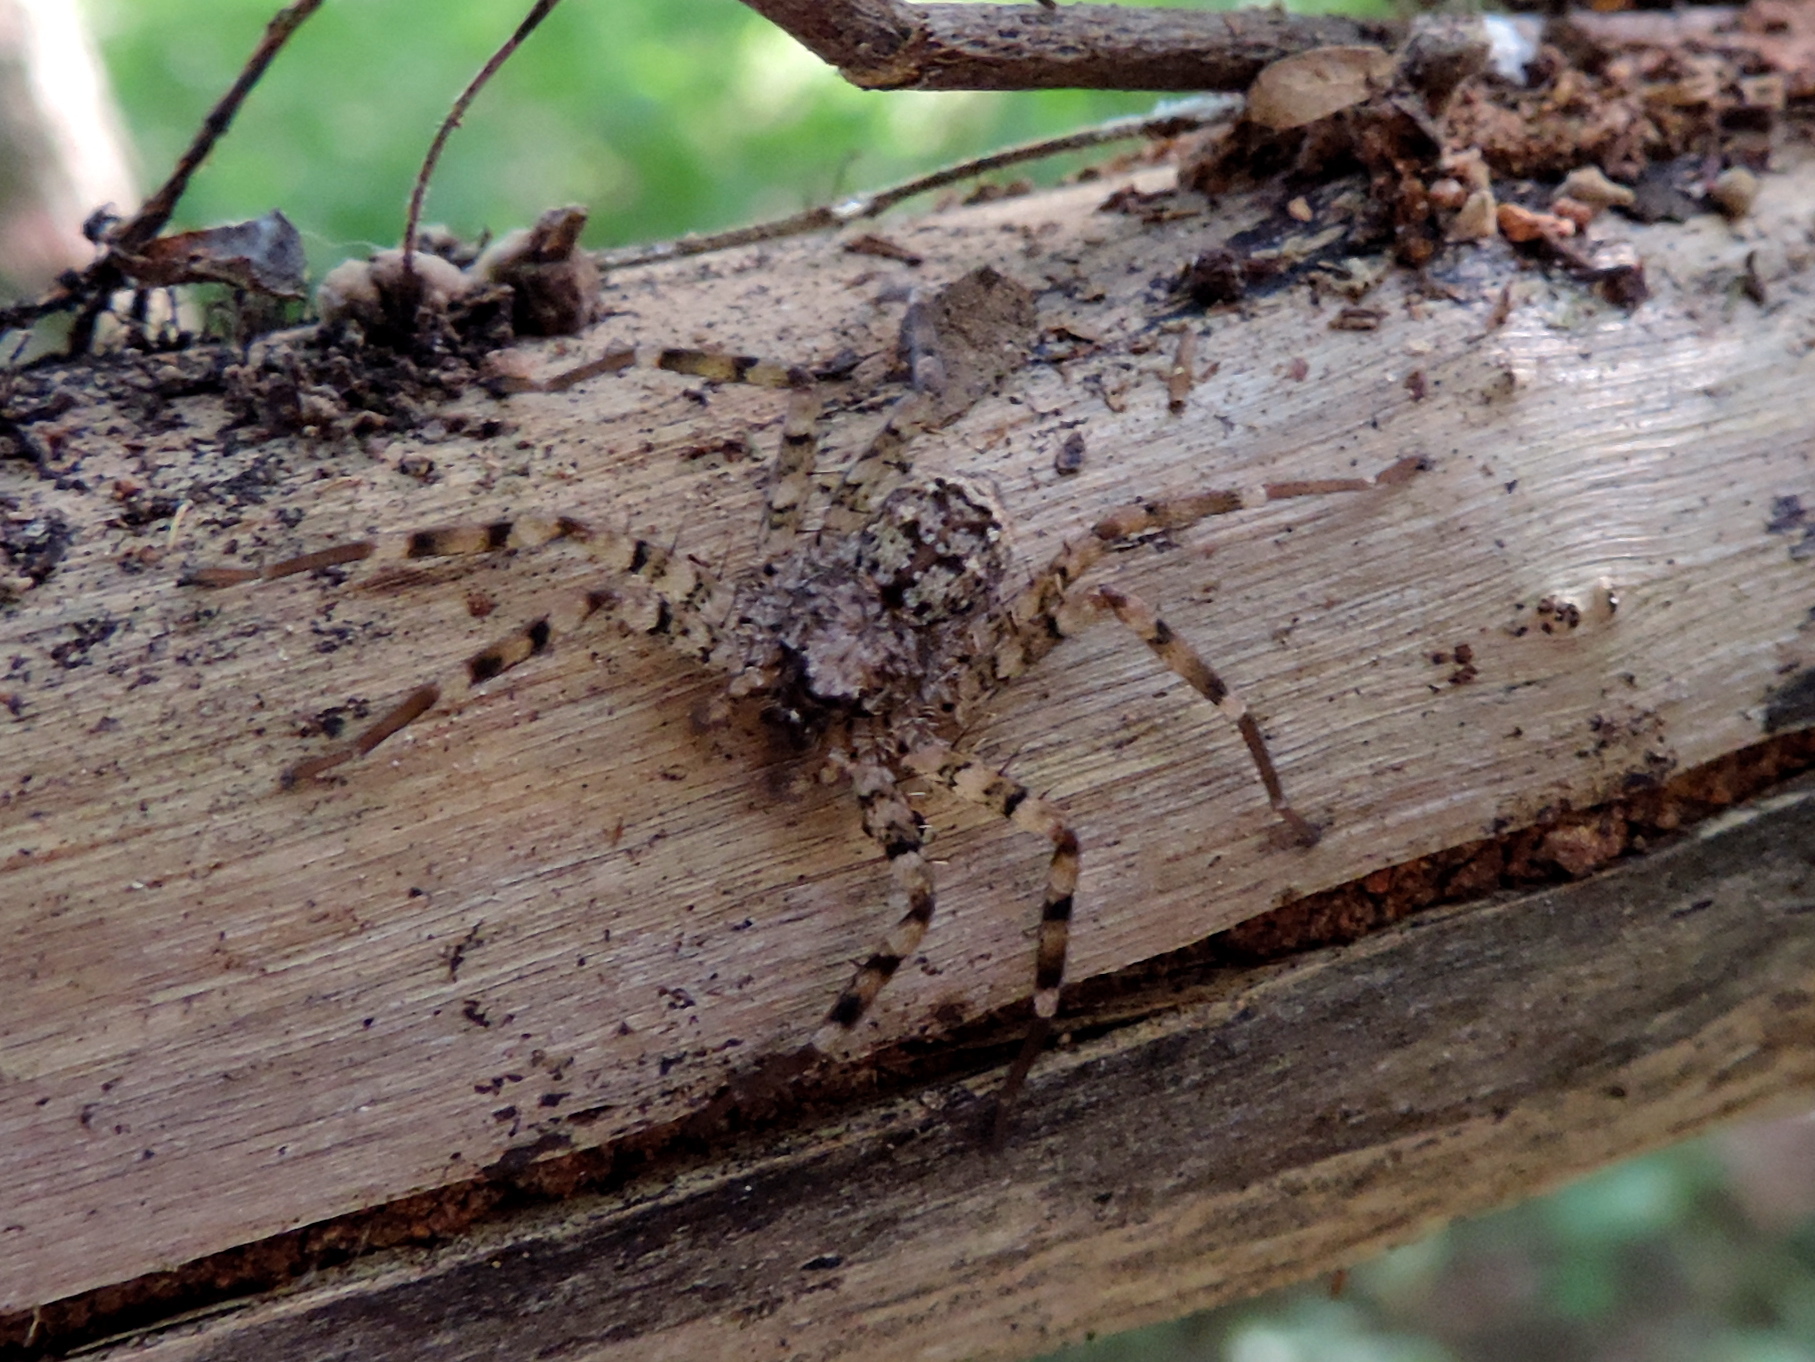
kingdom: Animalia
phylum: Arthropoda
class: Arachnida
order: Araneae
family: Selenopidae
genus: Selenops
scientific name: Selenops
